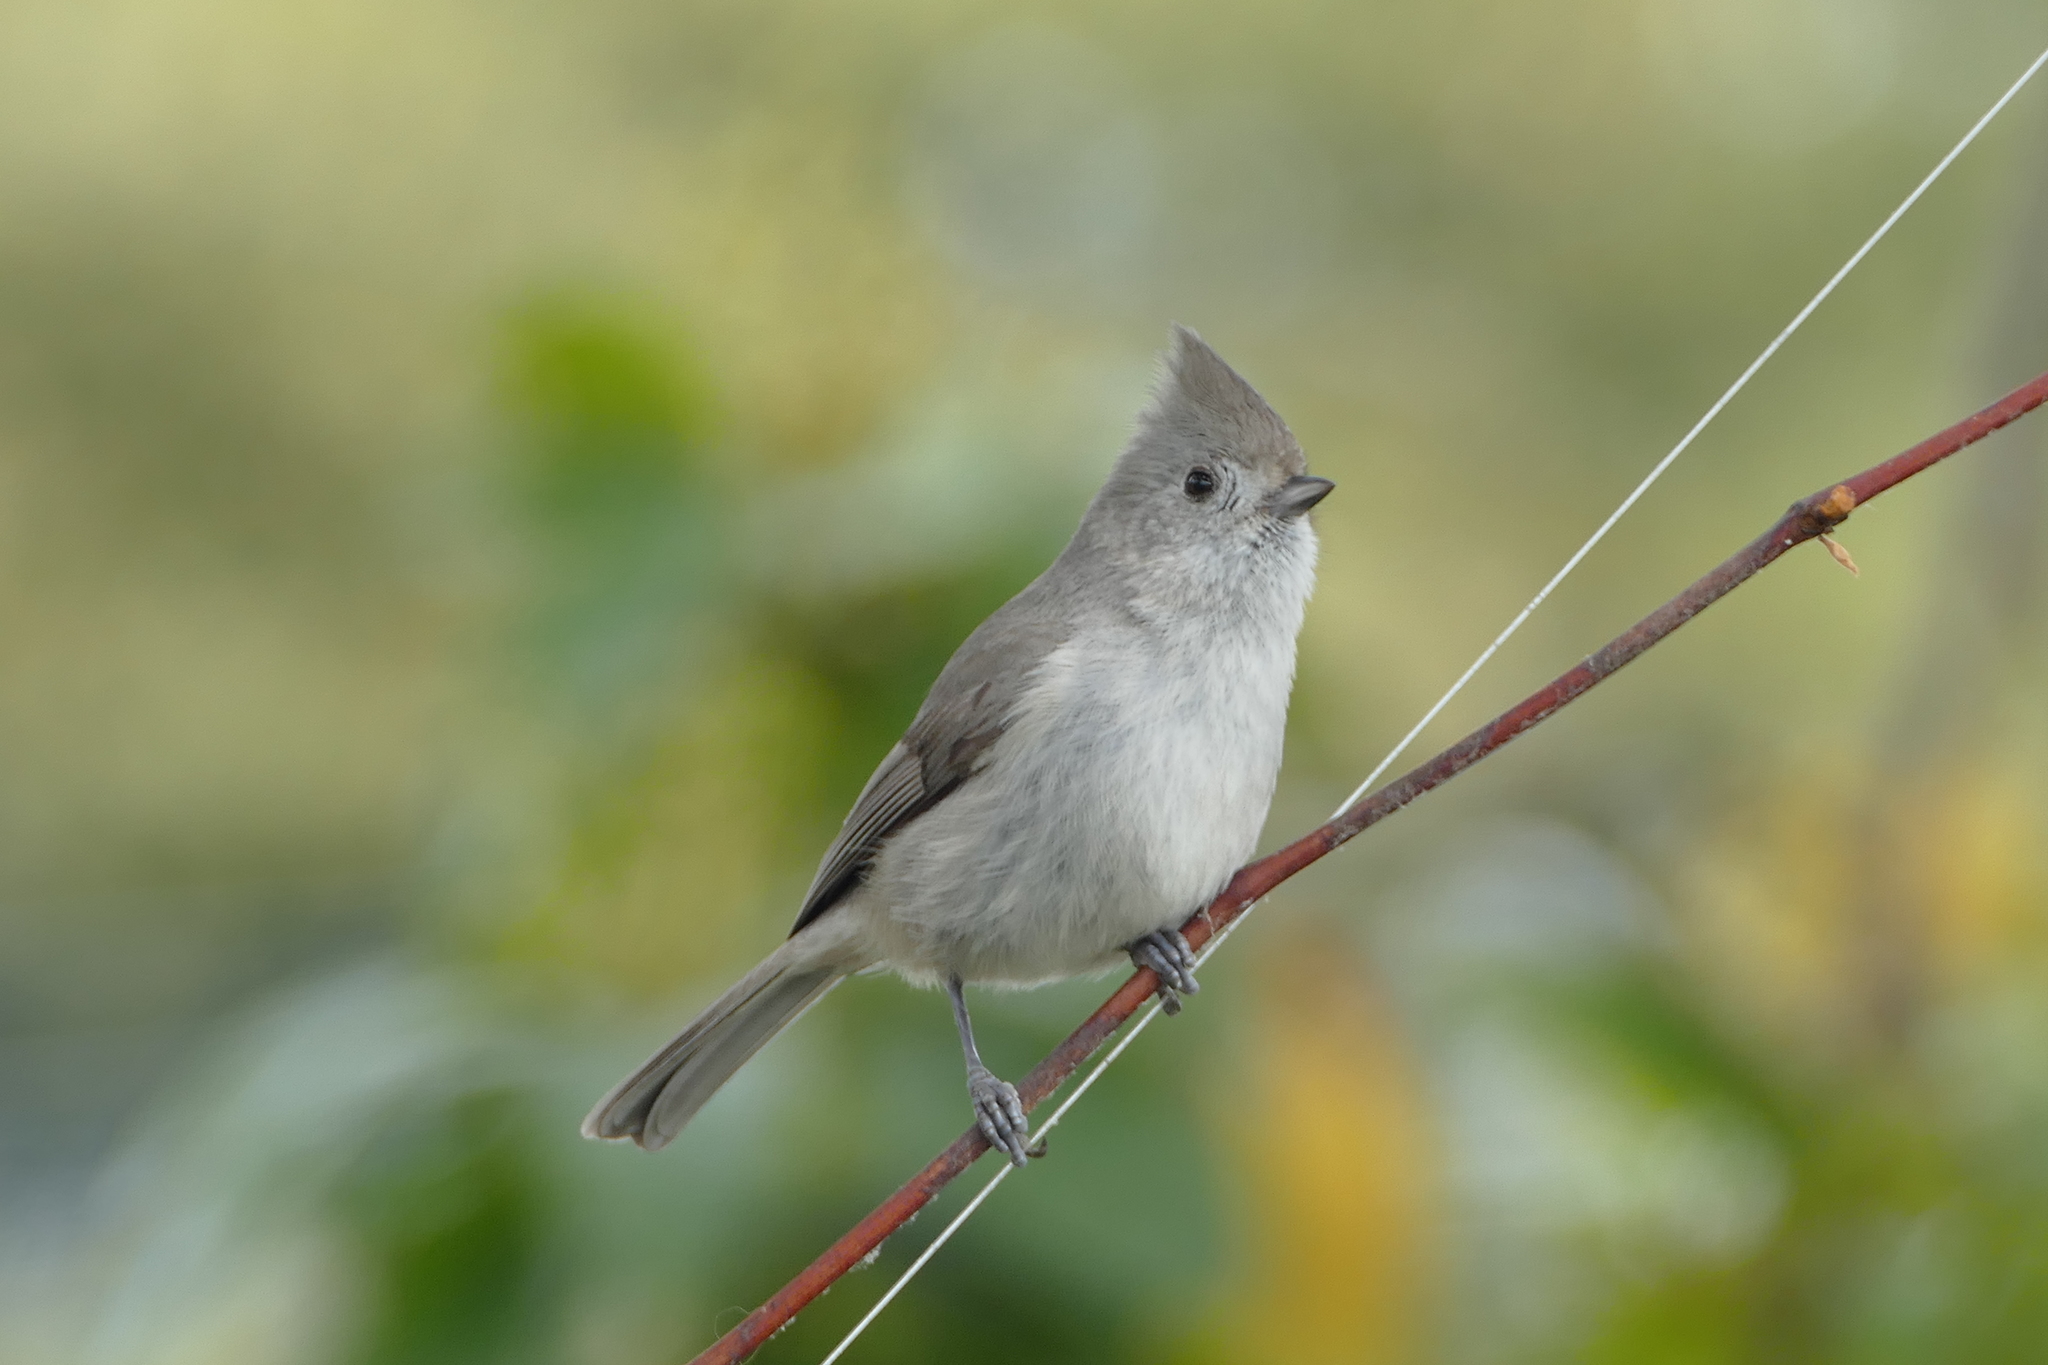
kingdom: Animalia
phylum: Chordata
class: Aves
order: Passeriformes
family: Paridae
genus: Baeolophus
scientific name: Baeolophus inornatus
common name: Oak titmouse
